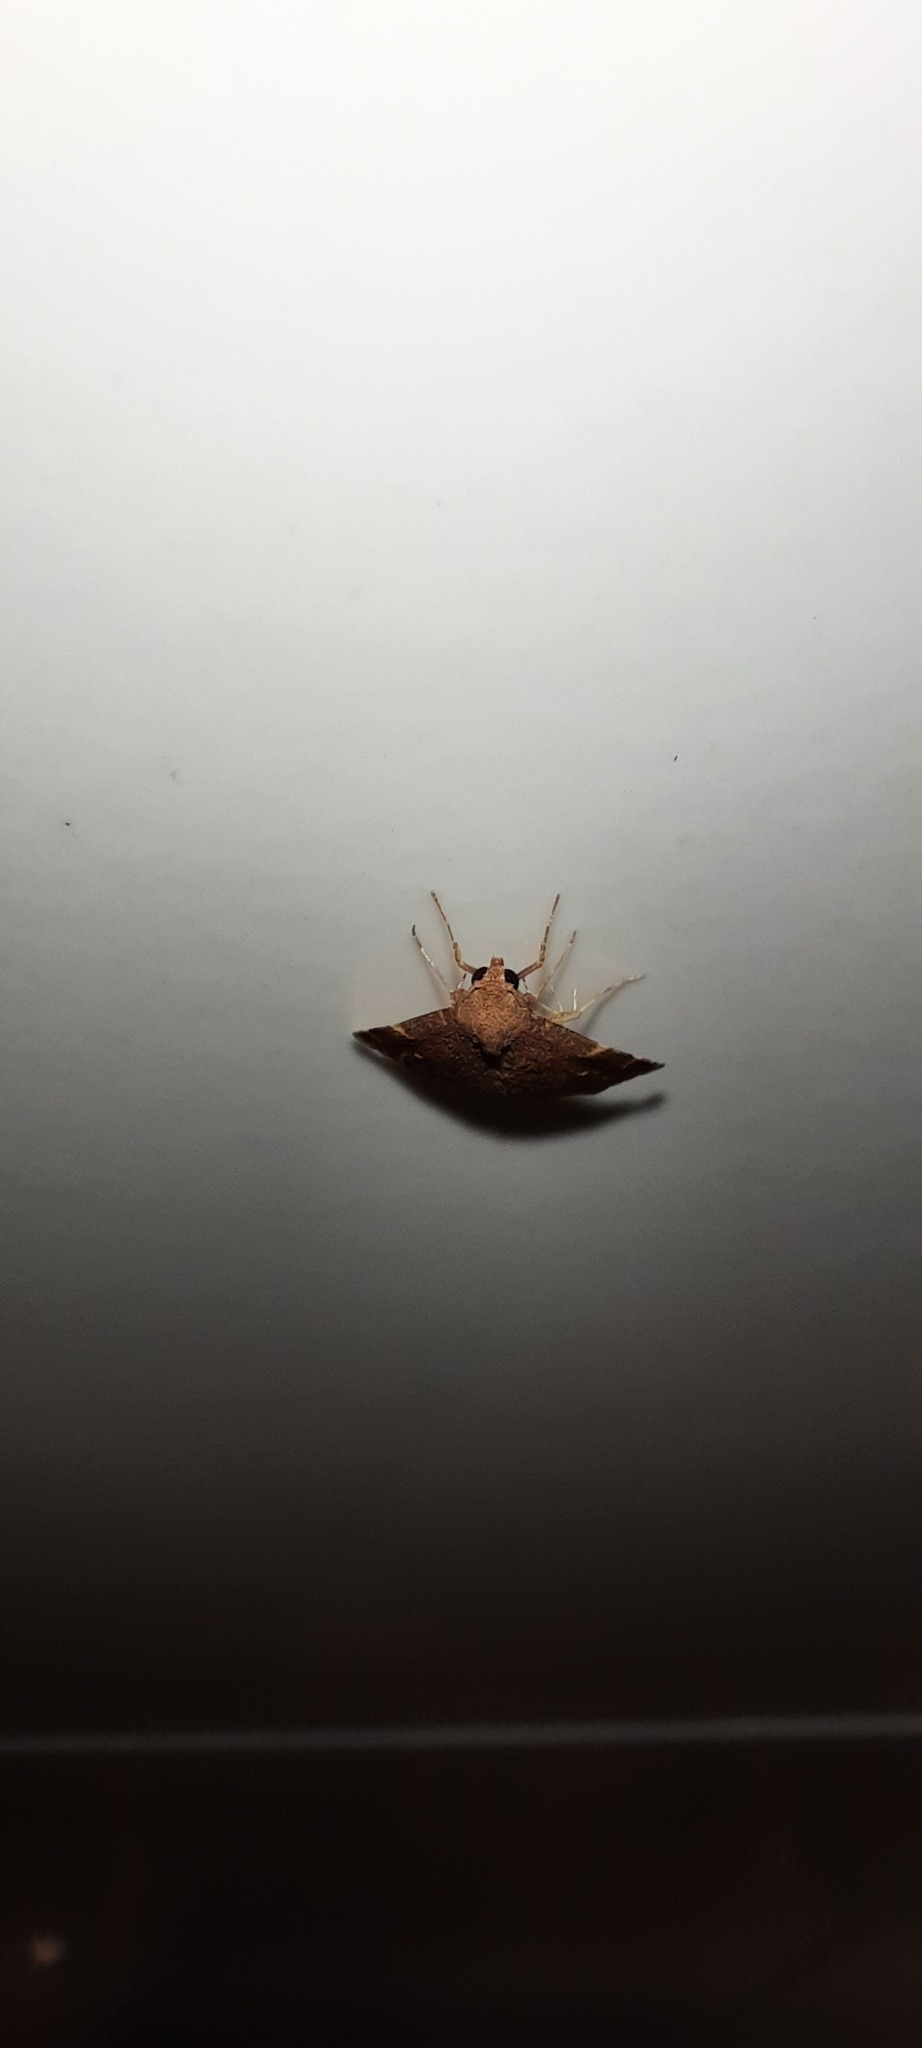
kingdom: Animalia
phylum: Arthropoda
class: Insecta
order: Lepidoptera
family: Noctuidae
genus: Heterorta
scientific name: Heterorta plutonis
